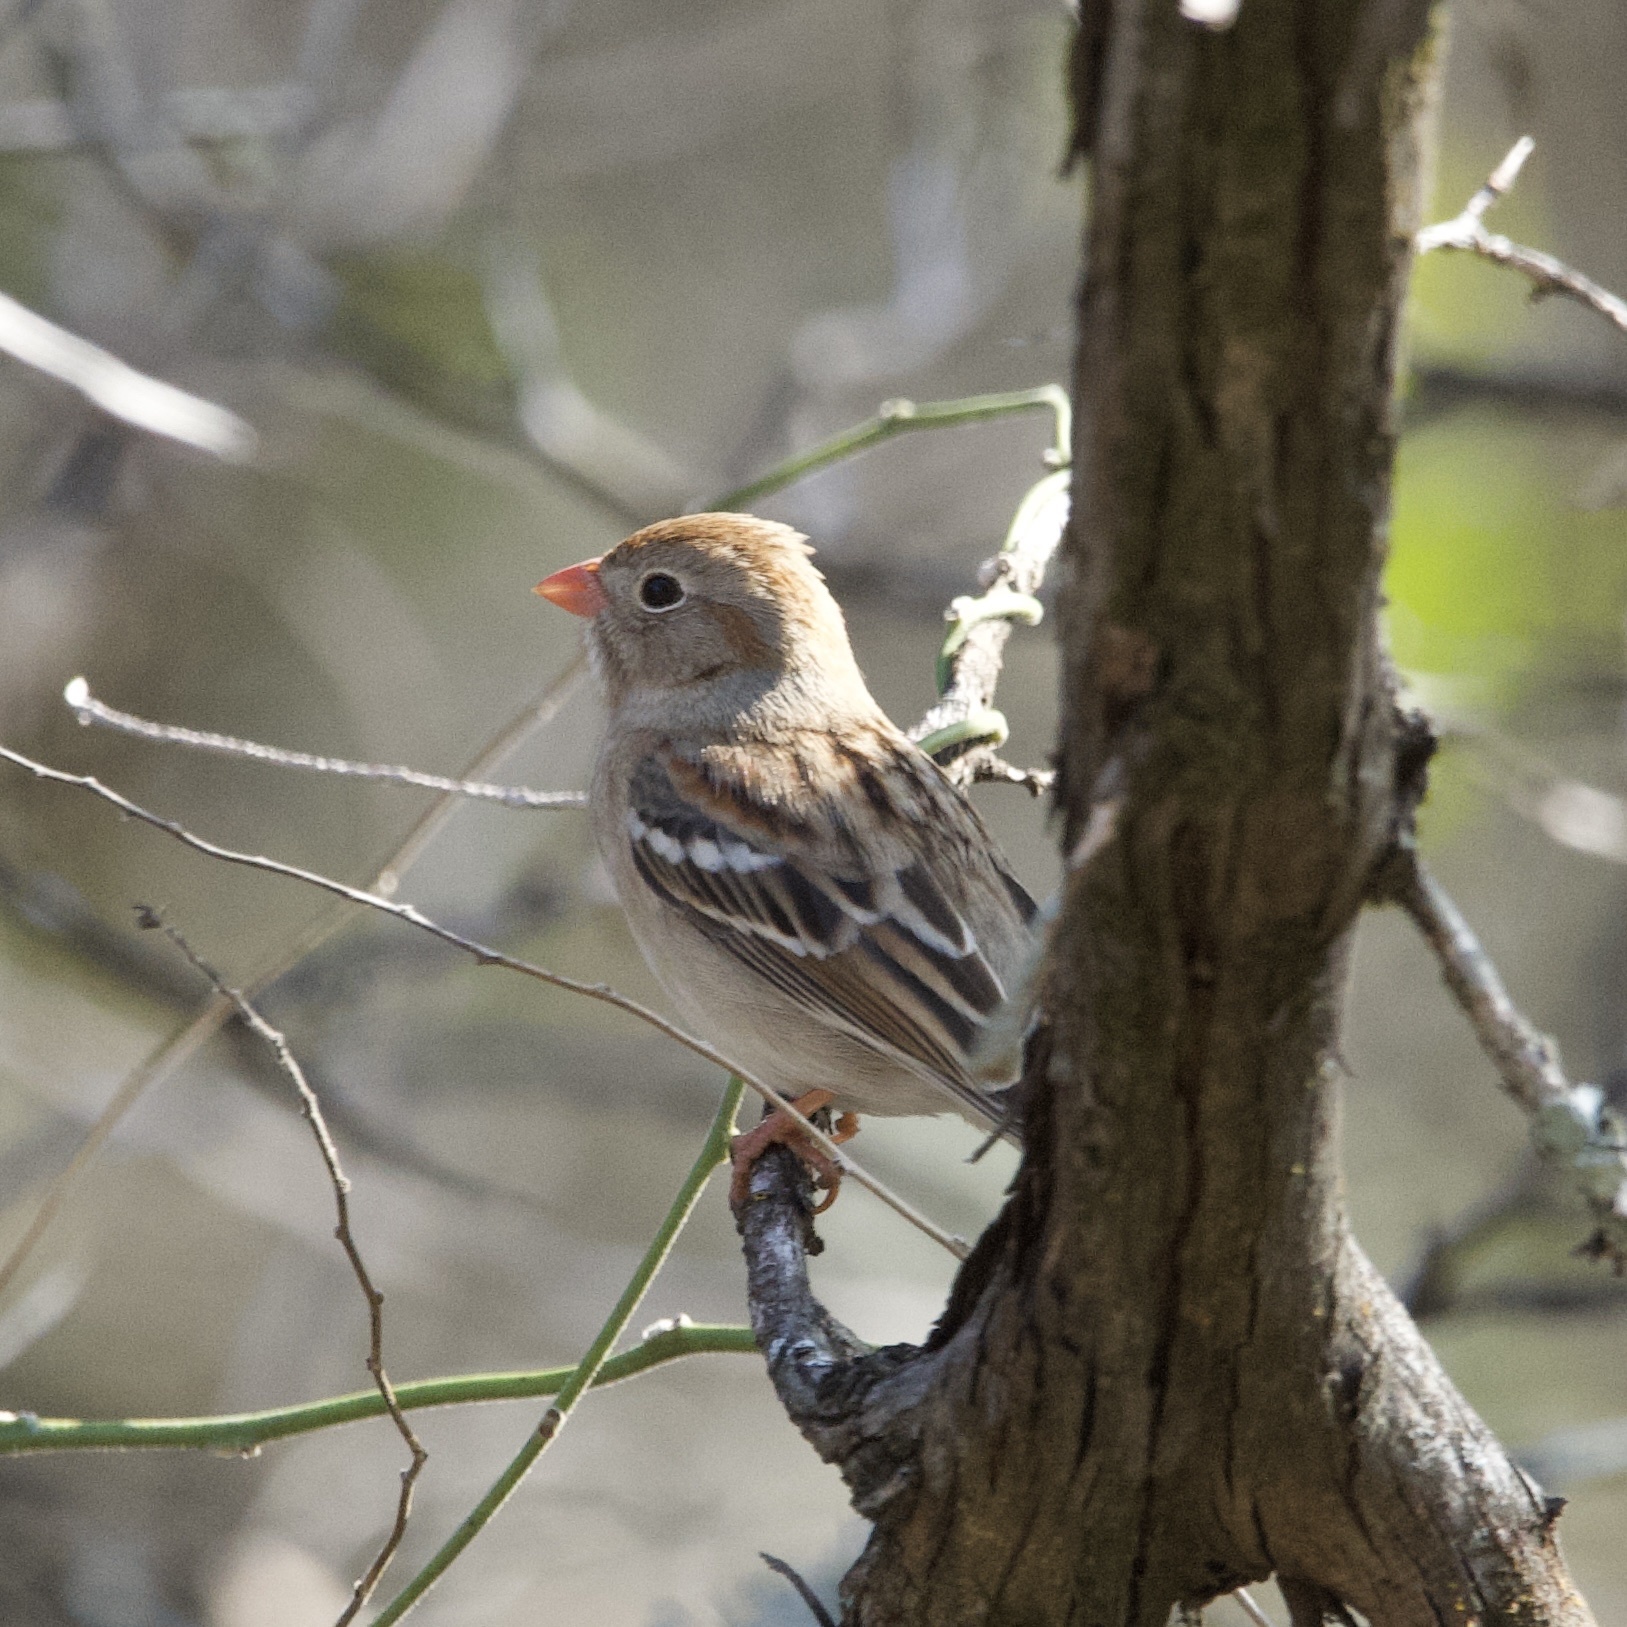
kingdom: Animalia
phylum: Chordata
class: Aves
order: Passeriformes
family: Passerellidae
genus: Spizella
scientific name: Spizella pusilla
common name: Field sparrow
